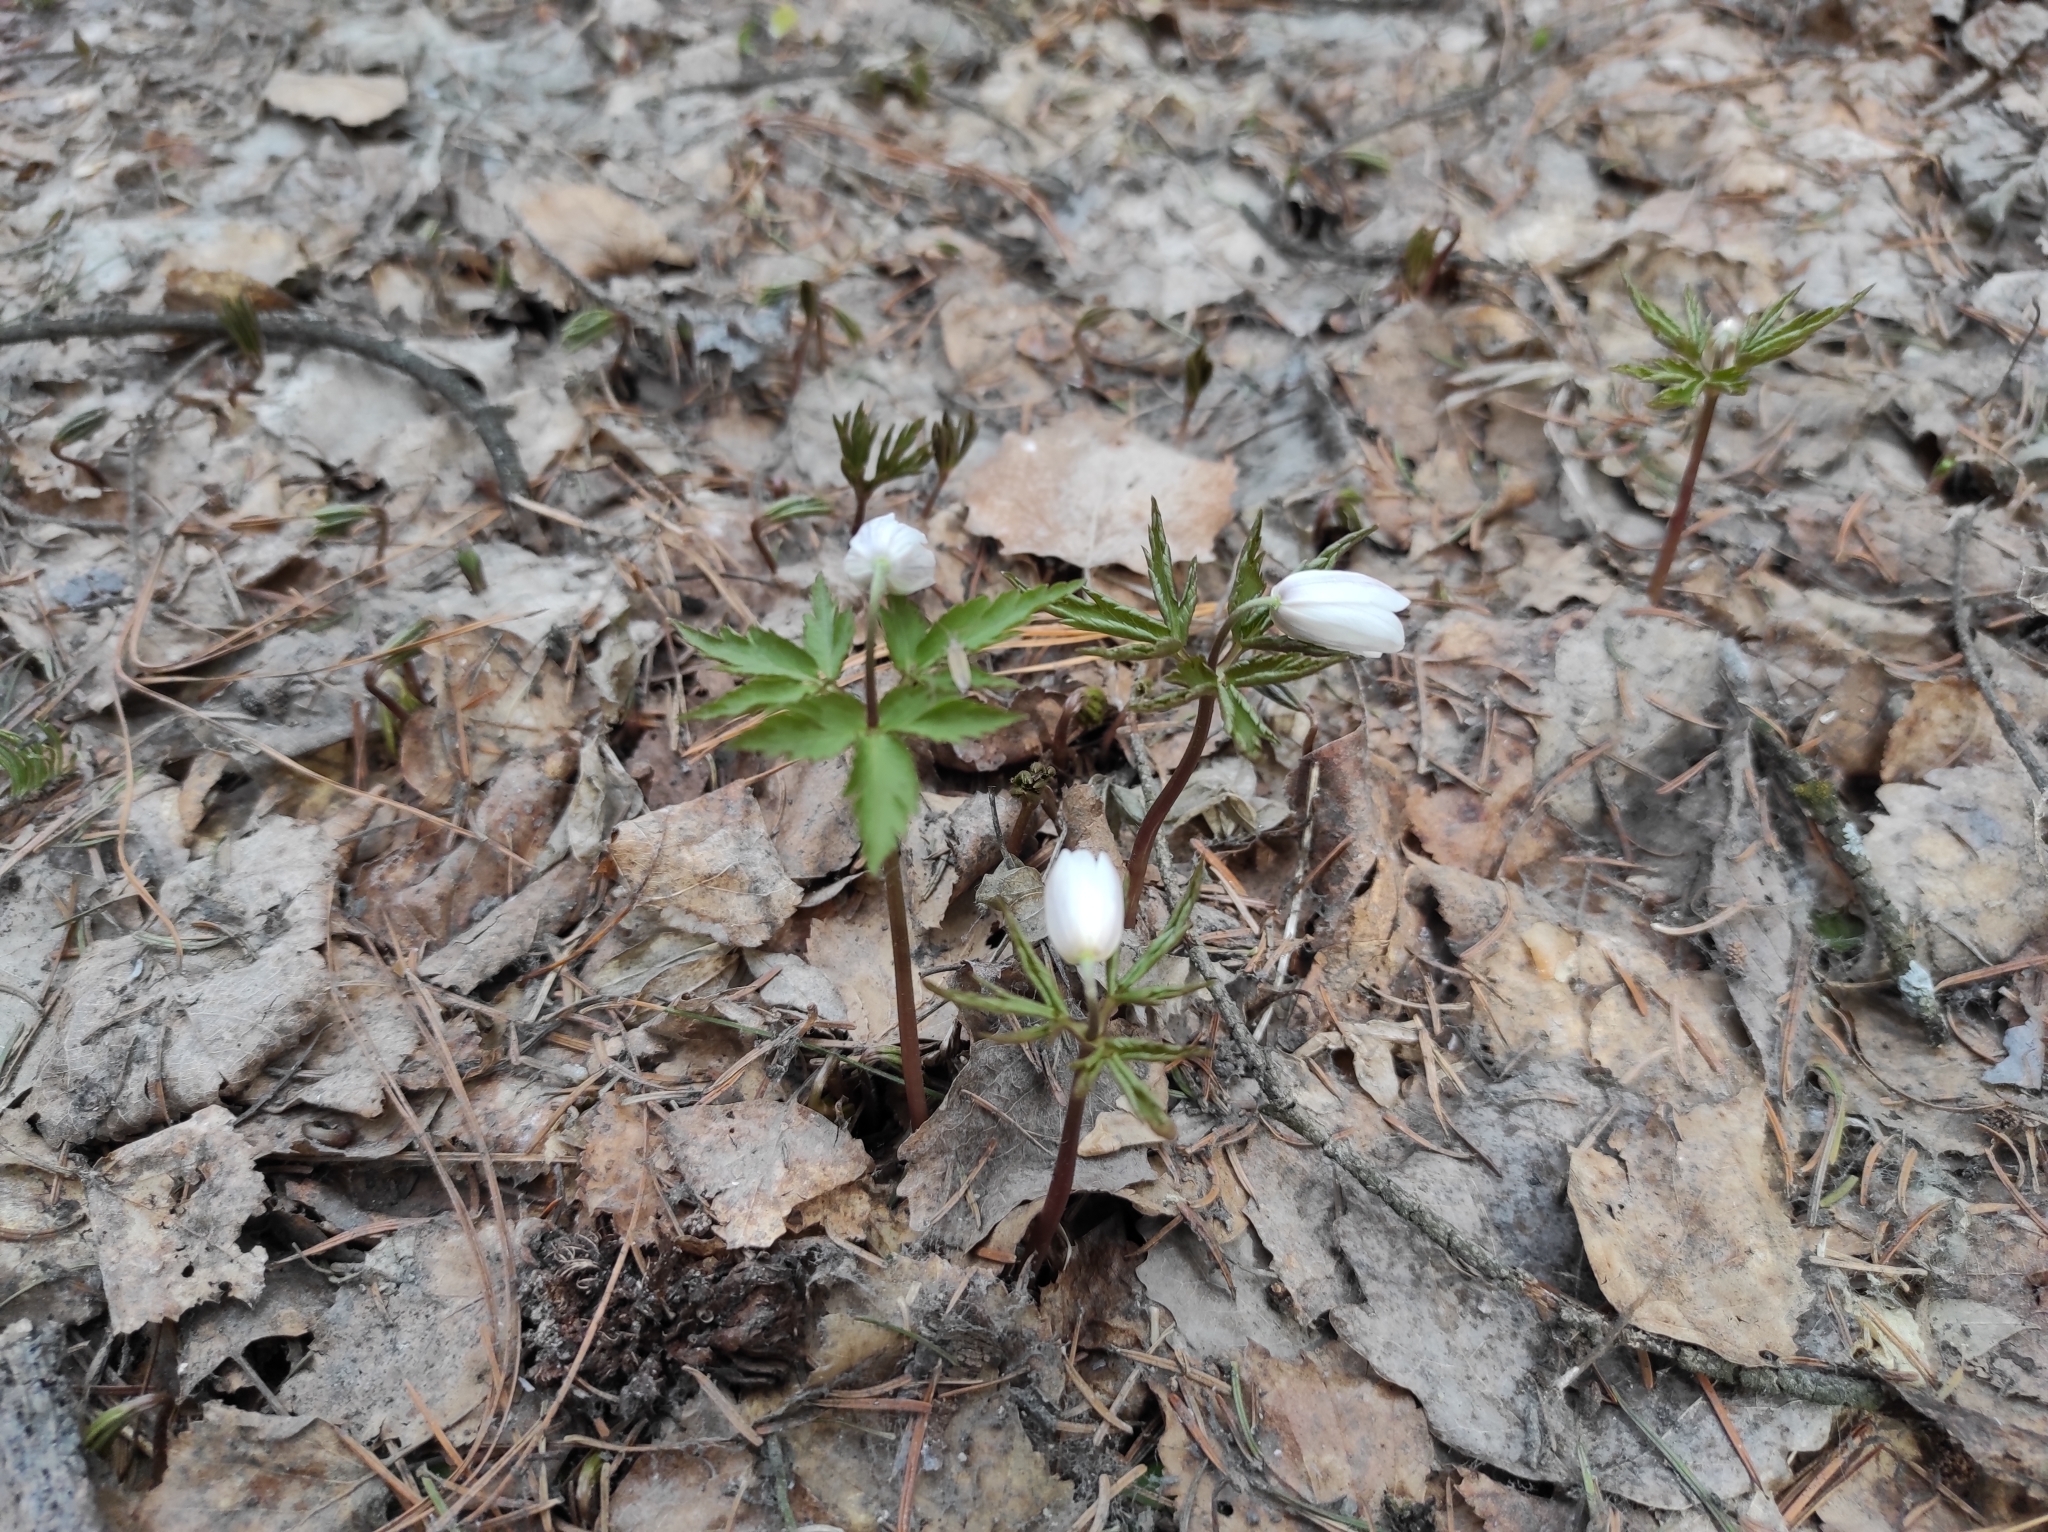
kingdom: Plantae
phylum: Tracheophyta
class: Magnoliopsida
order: Ranunculales
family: Ranunculaceae
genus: Anemone
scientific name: Anemone altaica
